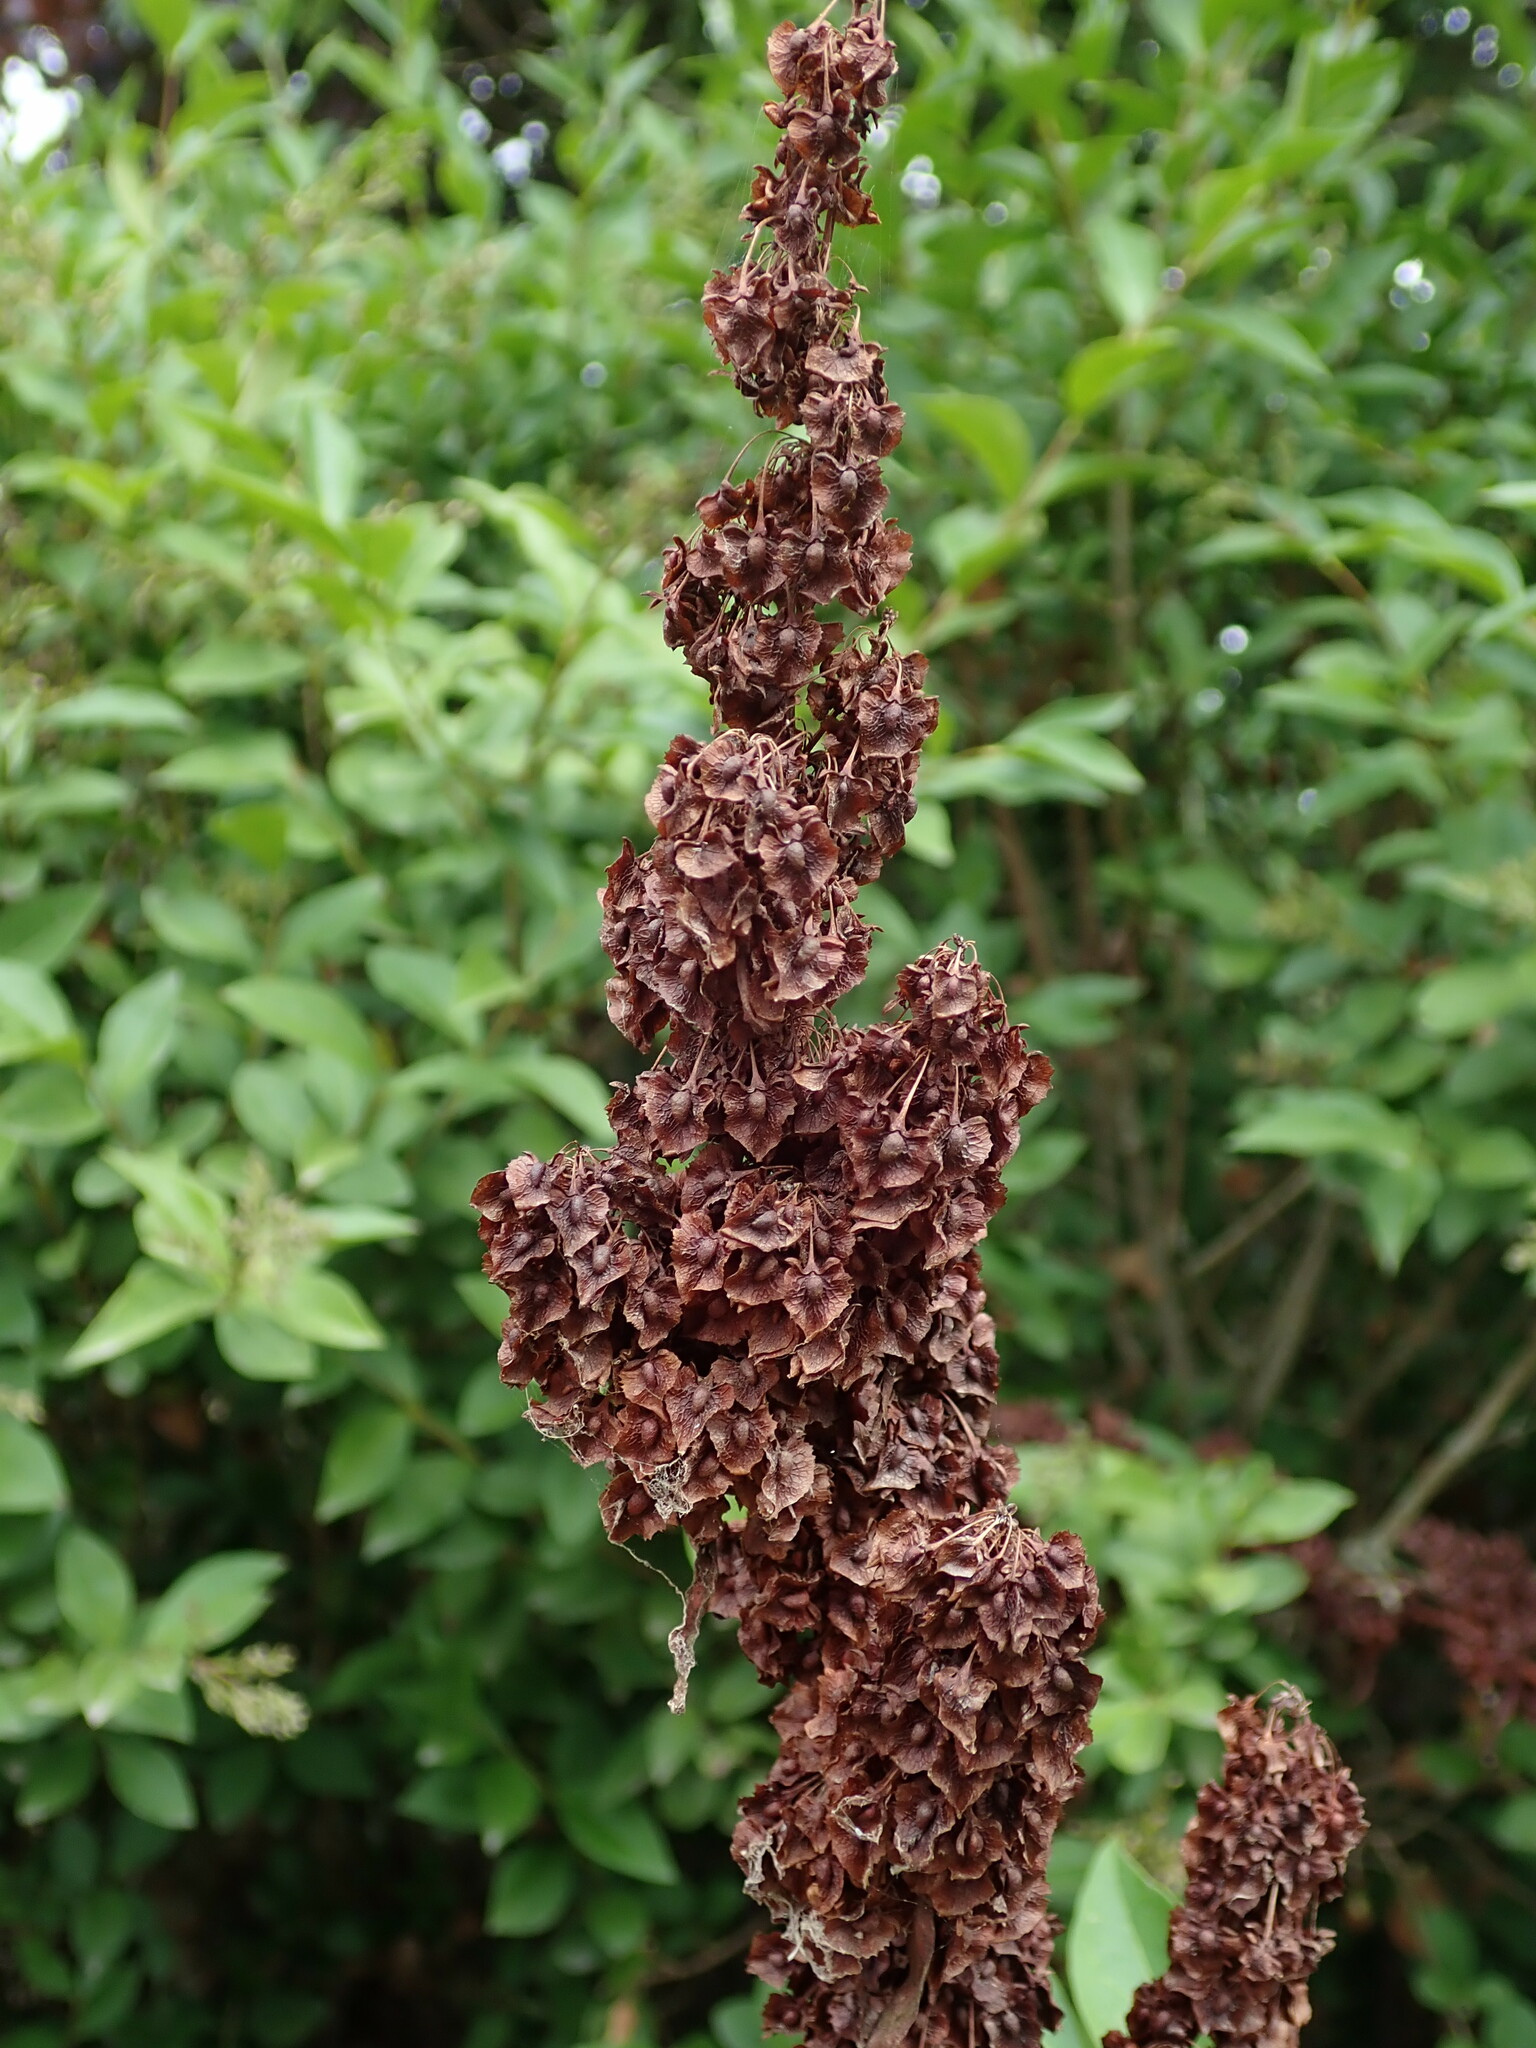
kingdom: Plantae
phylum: Tracheophyta
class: Magnoliopsida
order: Caryophyllales
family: Polygonaceae
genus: Rumex
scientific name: Rumex cristatus
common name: Greek dock
